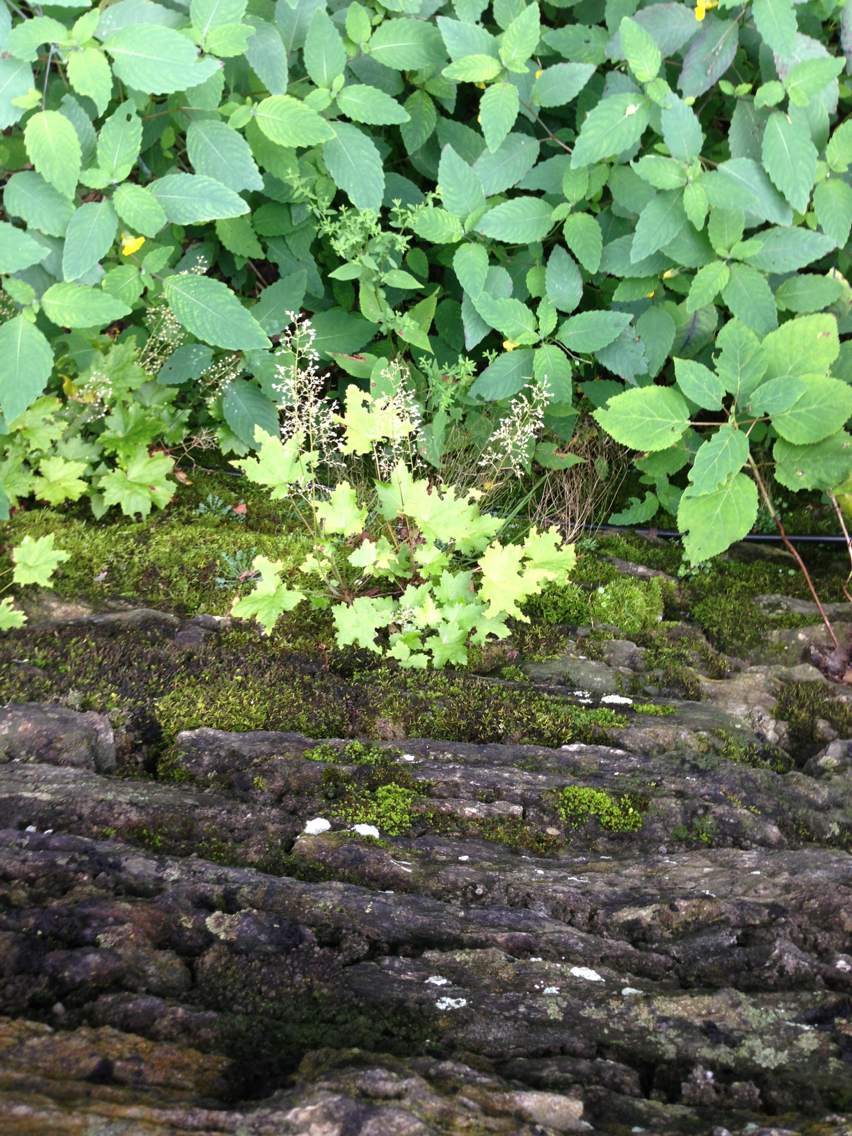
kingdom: Plantae
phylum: Tracheophyta
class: Magnoliopsida
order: Saxifragales
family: Saxifragaceae
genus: Heuchera
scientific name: Heuchera villosa
